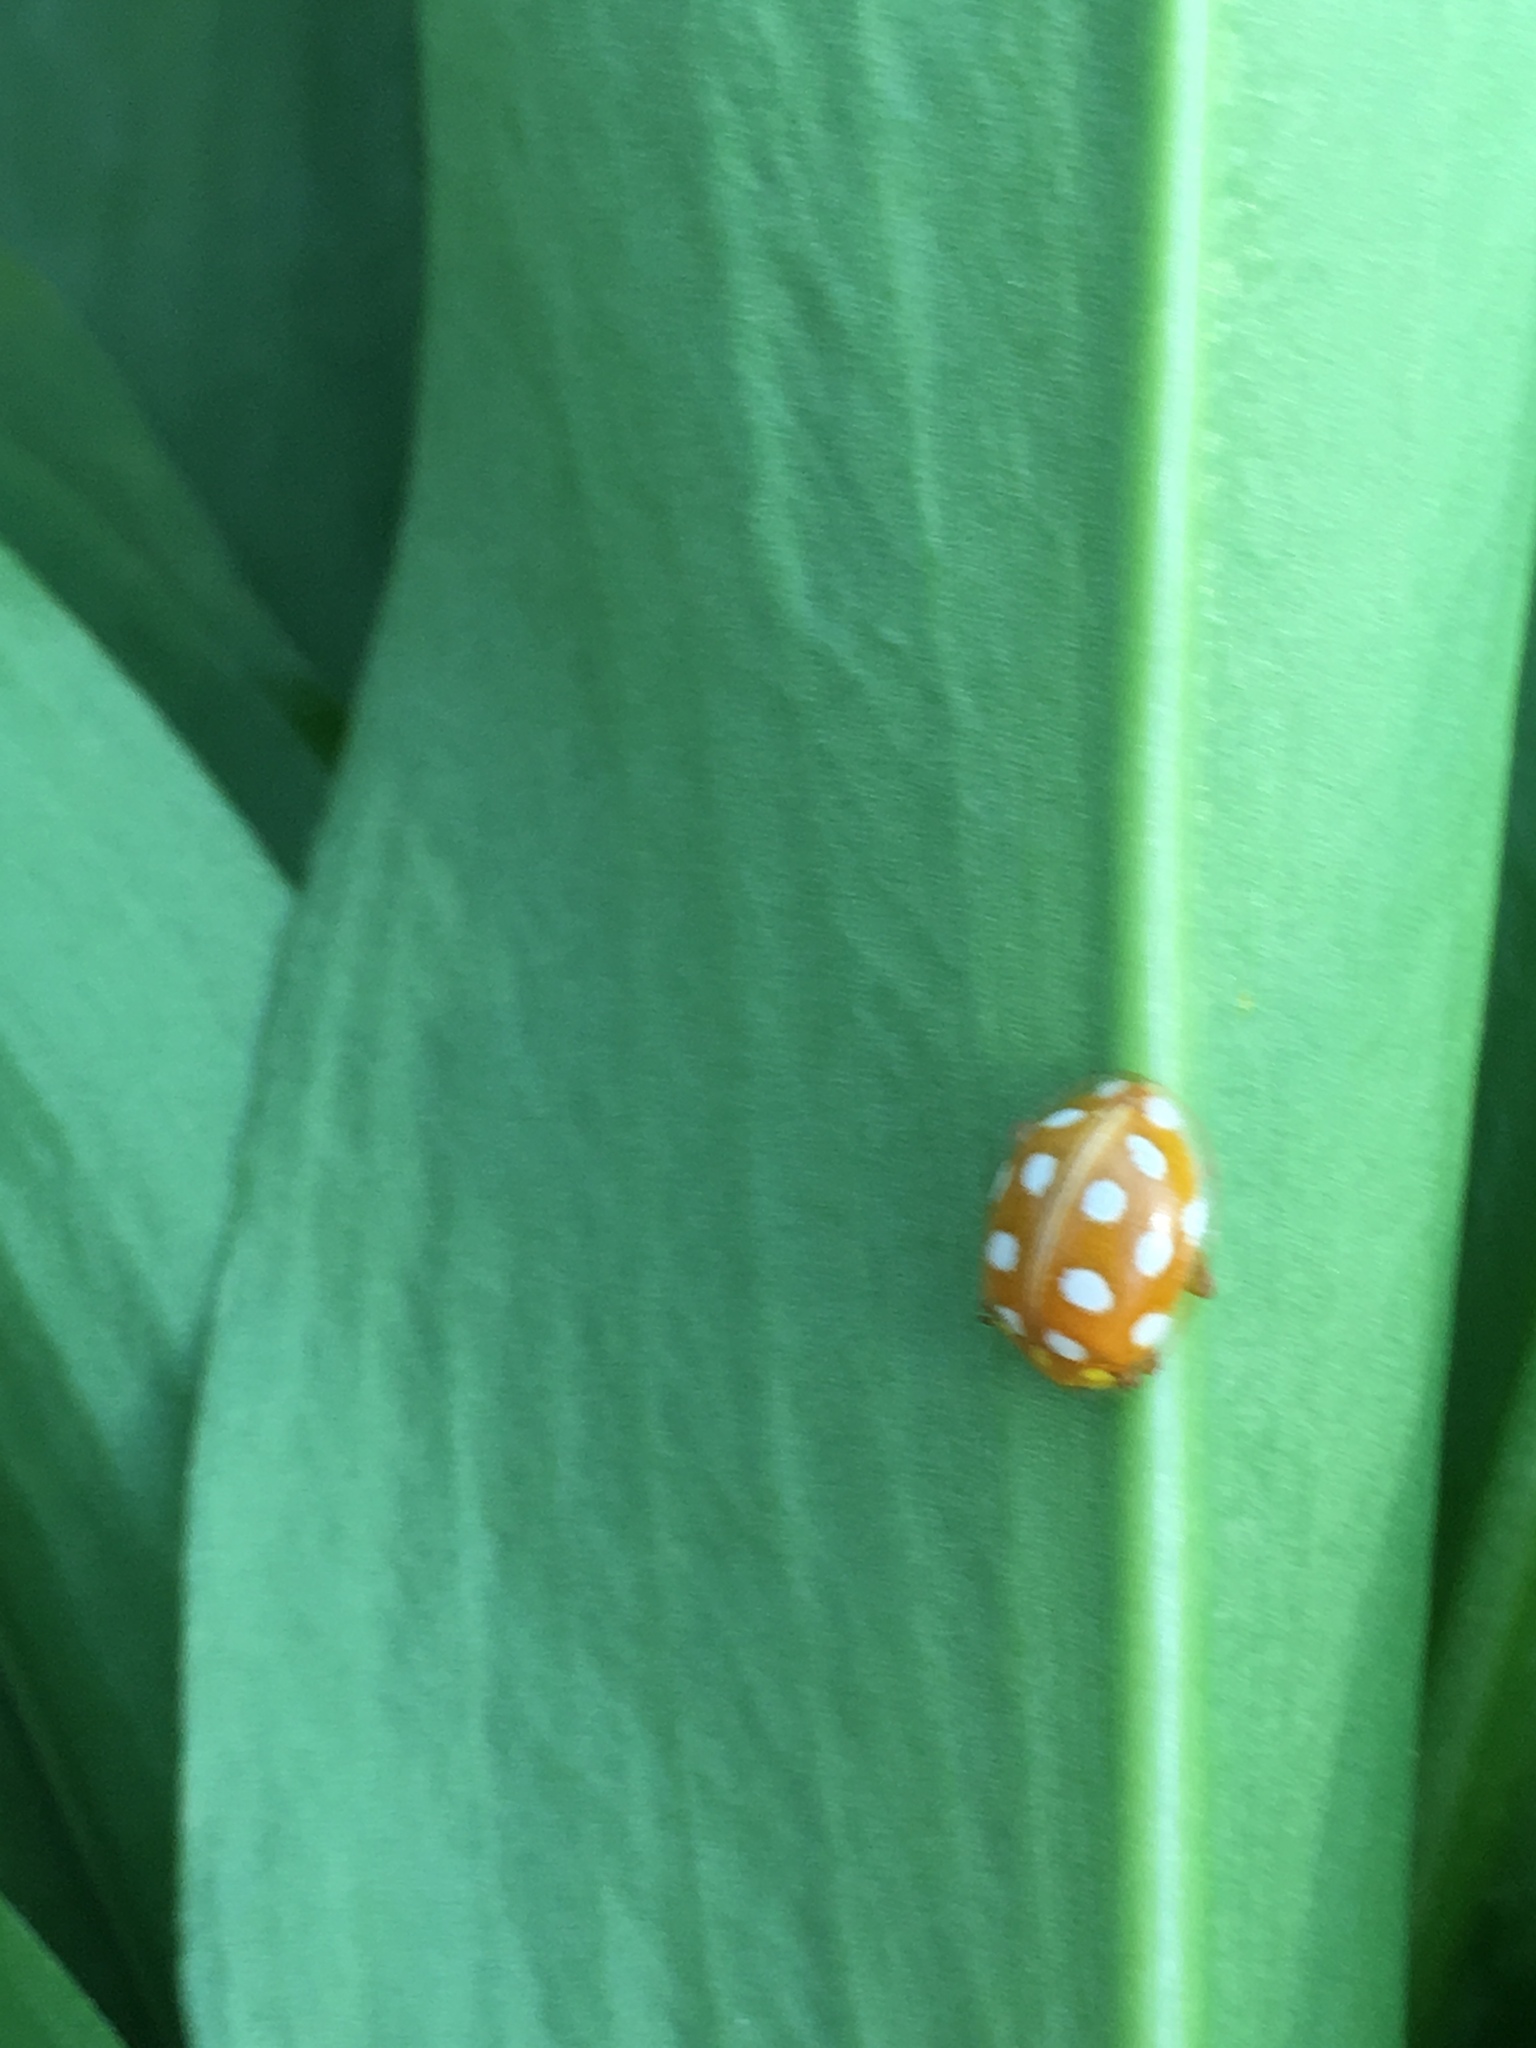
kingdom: Animalia
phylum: Arthropoda
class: Insecta
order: Coleoptera
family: Coccinellidae
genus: Halyzia
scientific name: Halyzia sedecimguttata
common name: Orange ladybird
